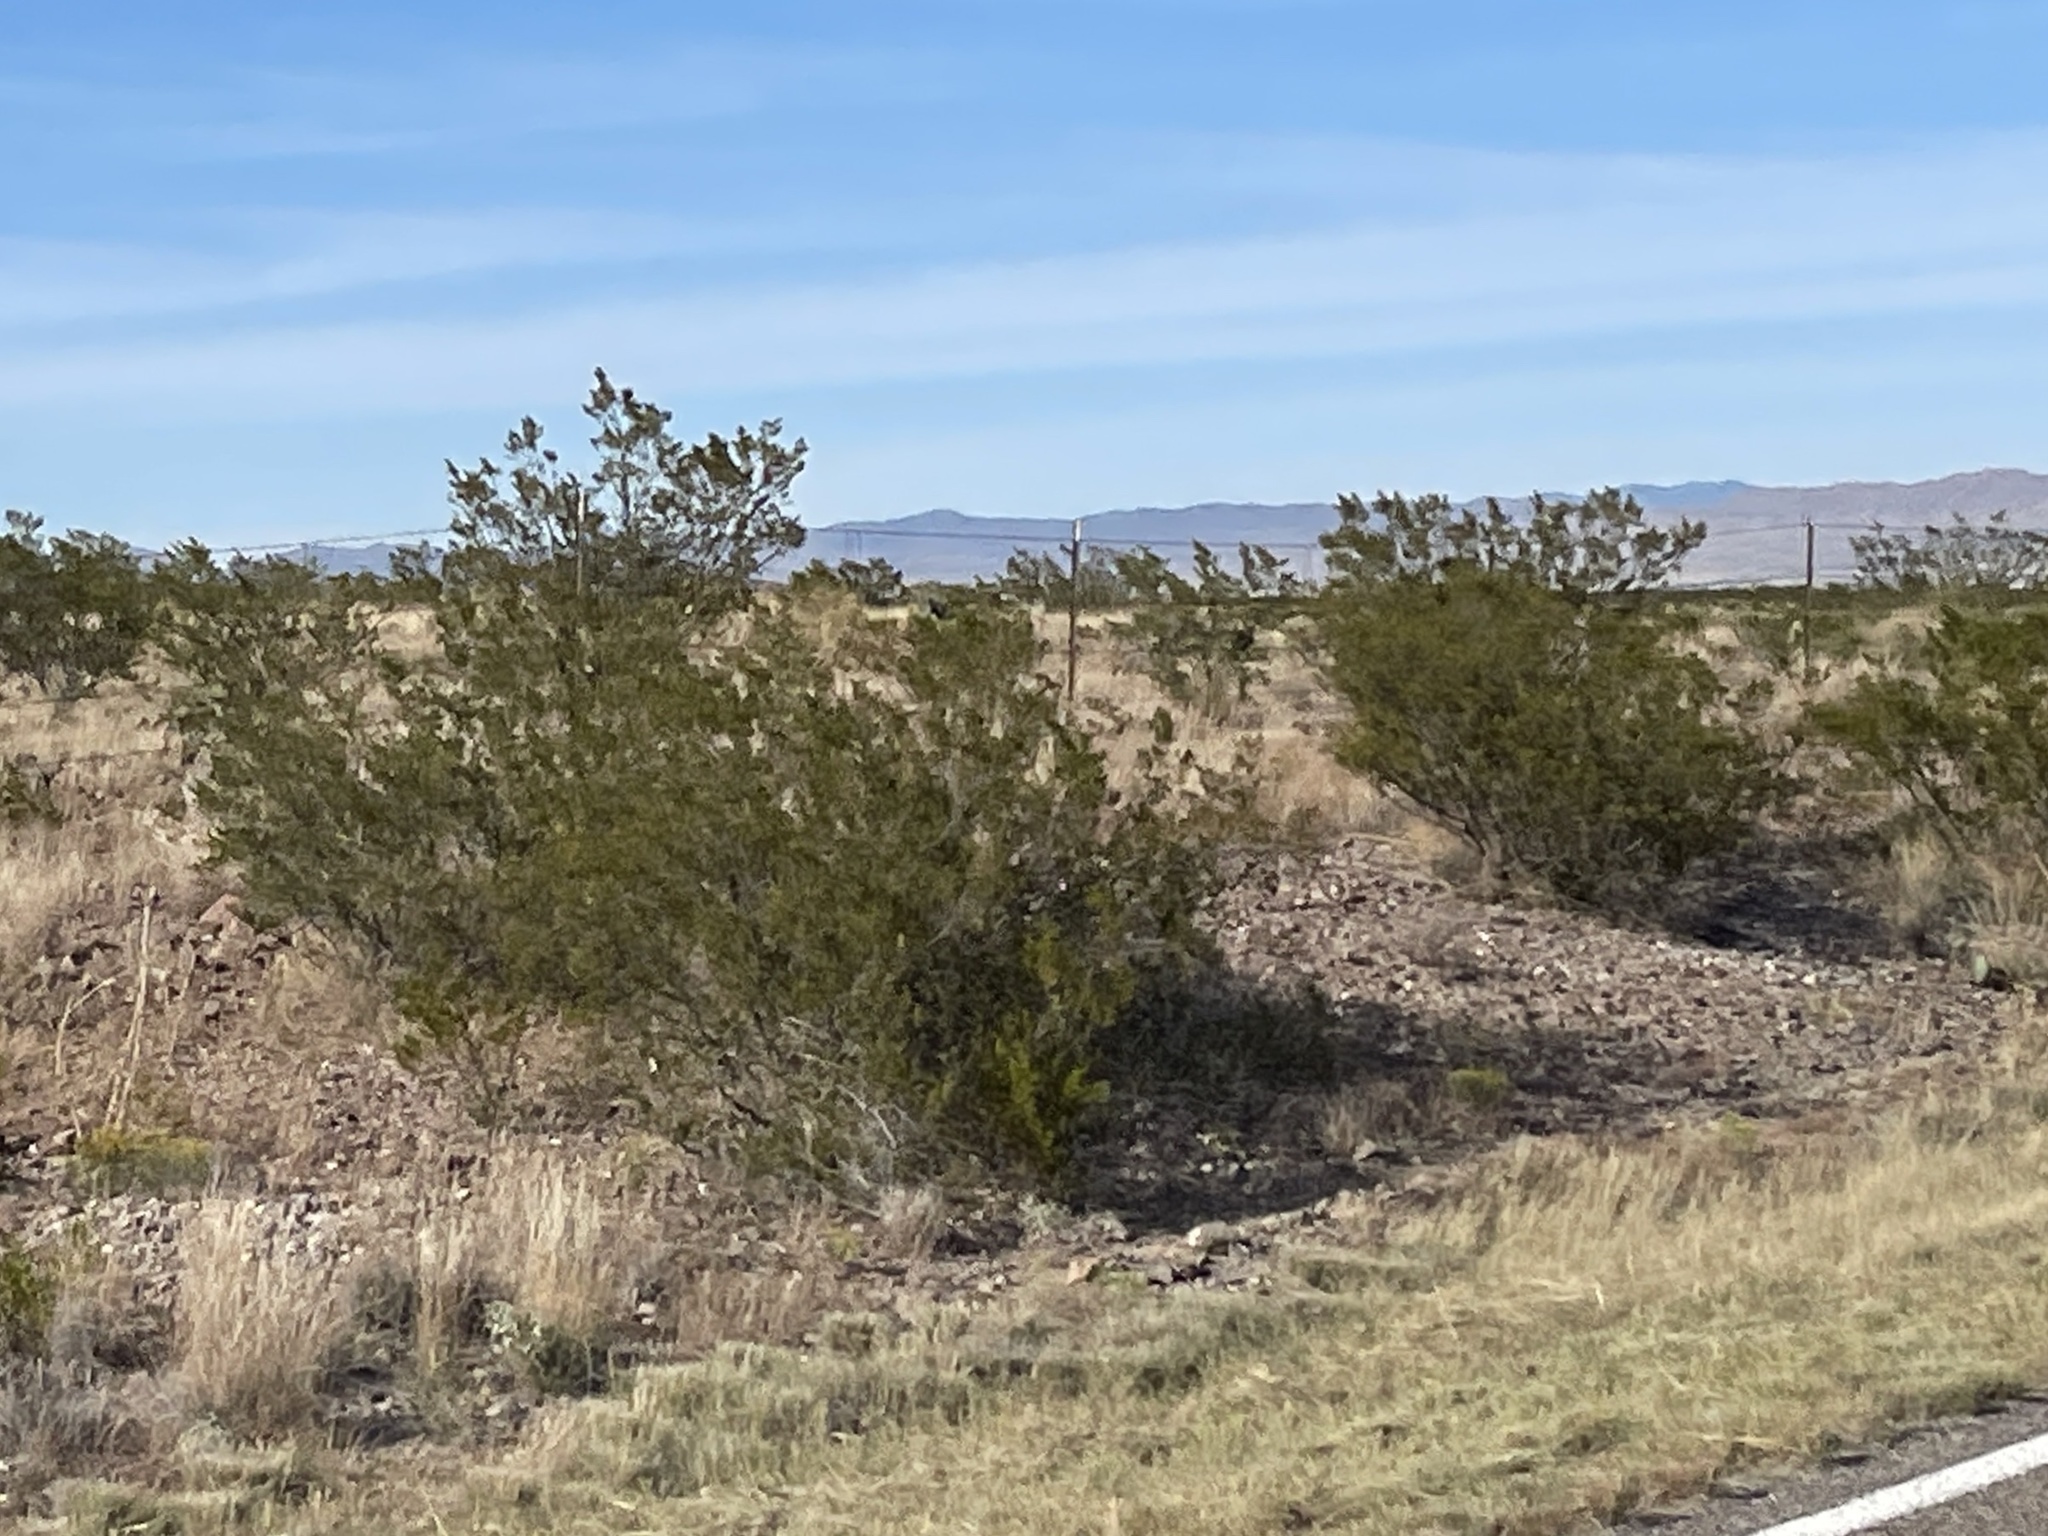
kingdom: Plantae
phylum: Tracheophyta
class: Magnoliopsida
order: Zygophyllales
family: Zygophyllaceae
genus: Larrea
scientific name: Larrea tridentata
